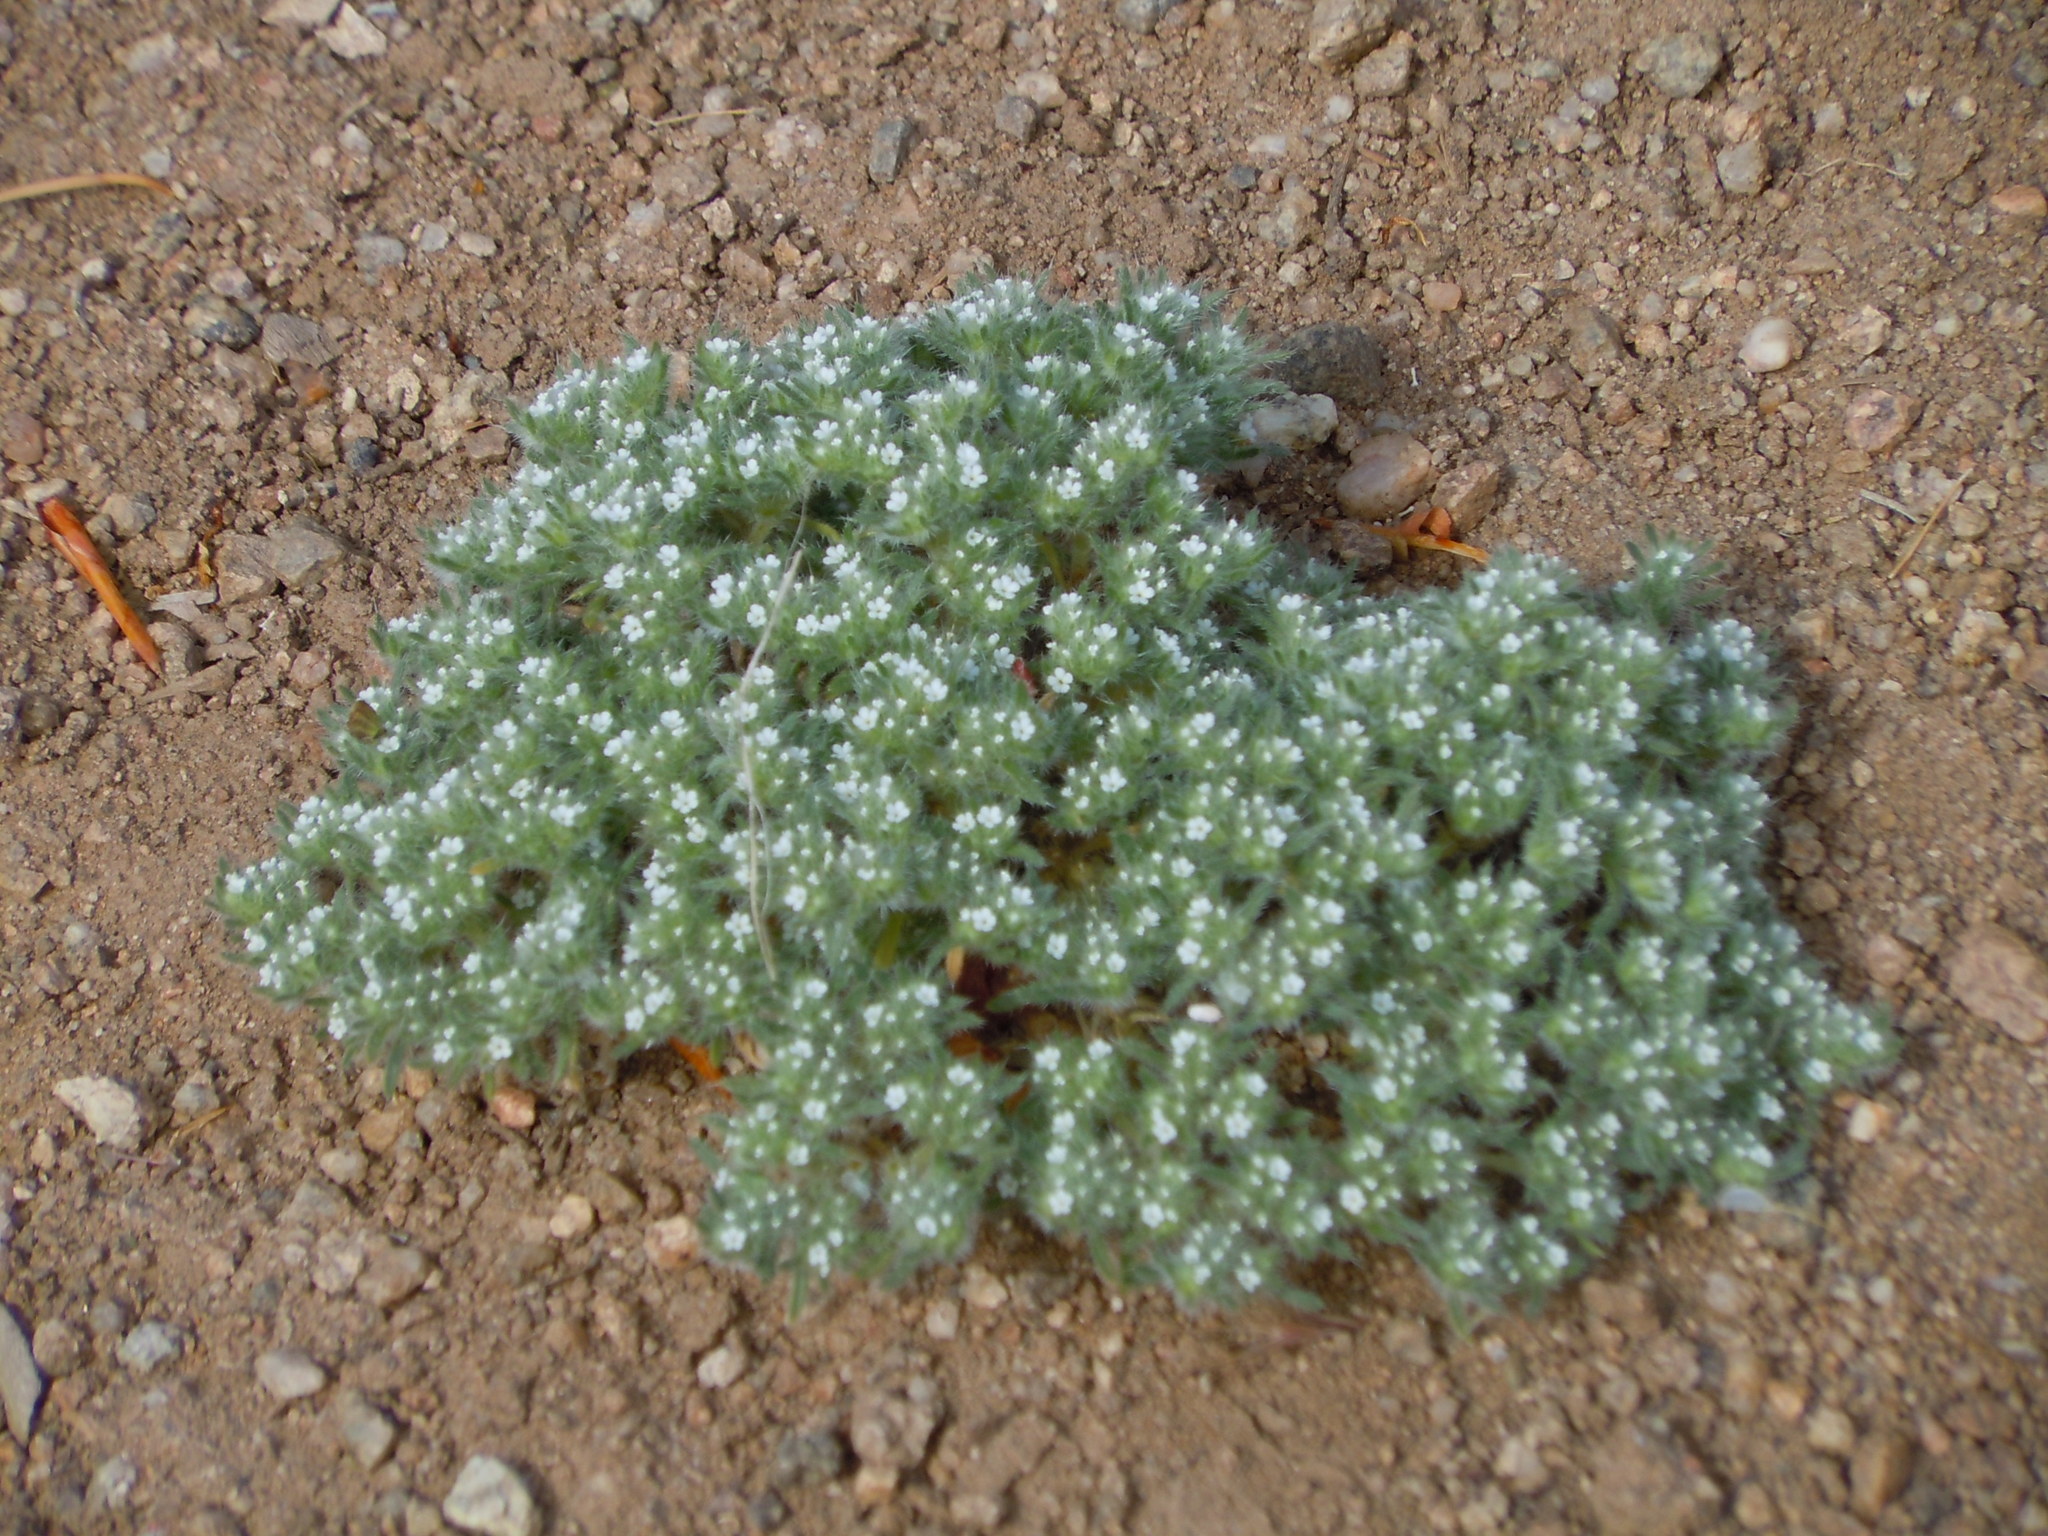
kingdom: Plantae
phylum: Tracheophyta
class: Magnoliopsida
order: Boraginales
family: Boraginaceae
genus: Greeneocharis
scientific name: Greeneocharis circumscissa
